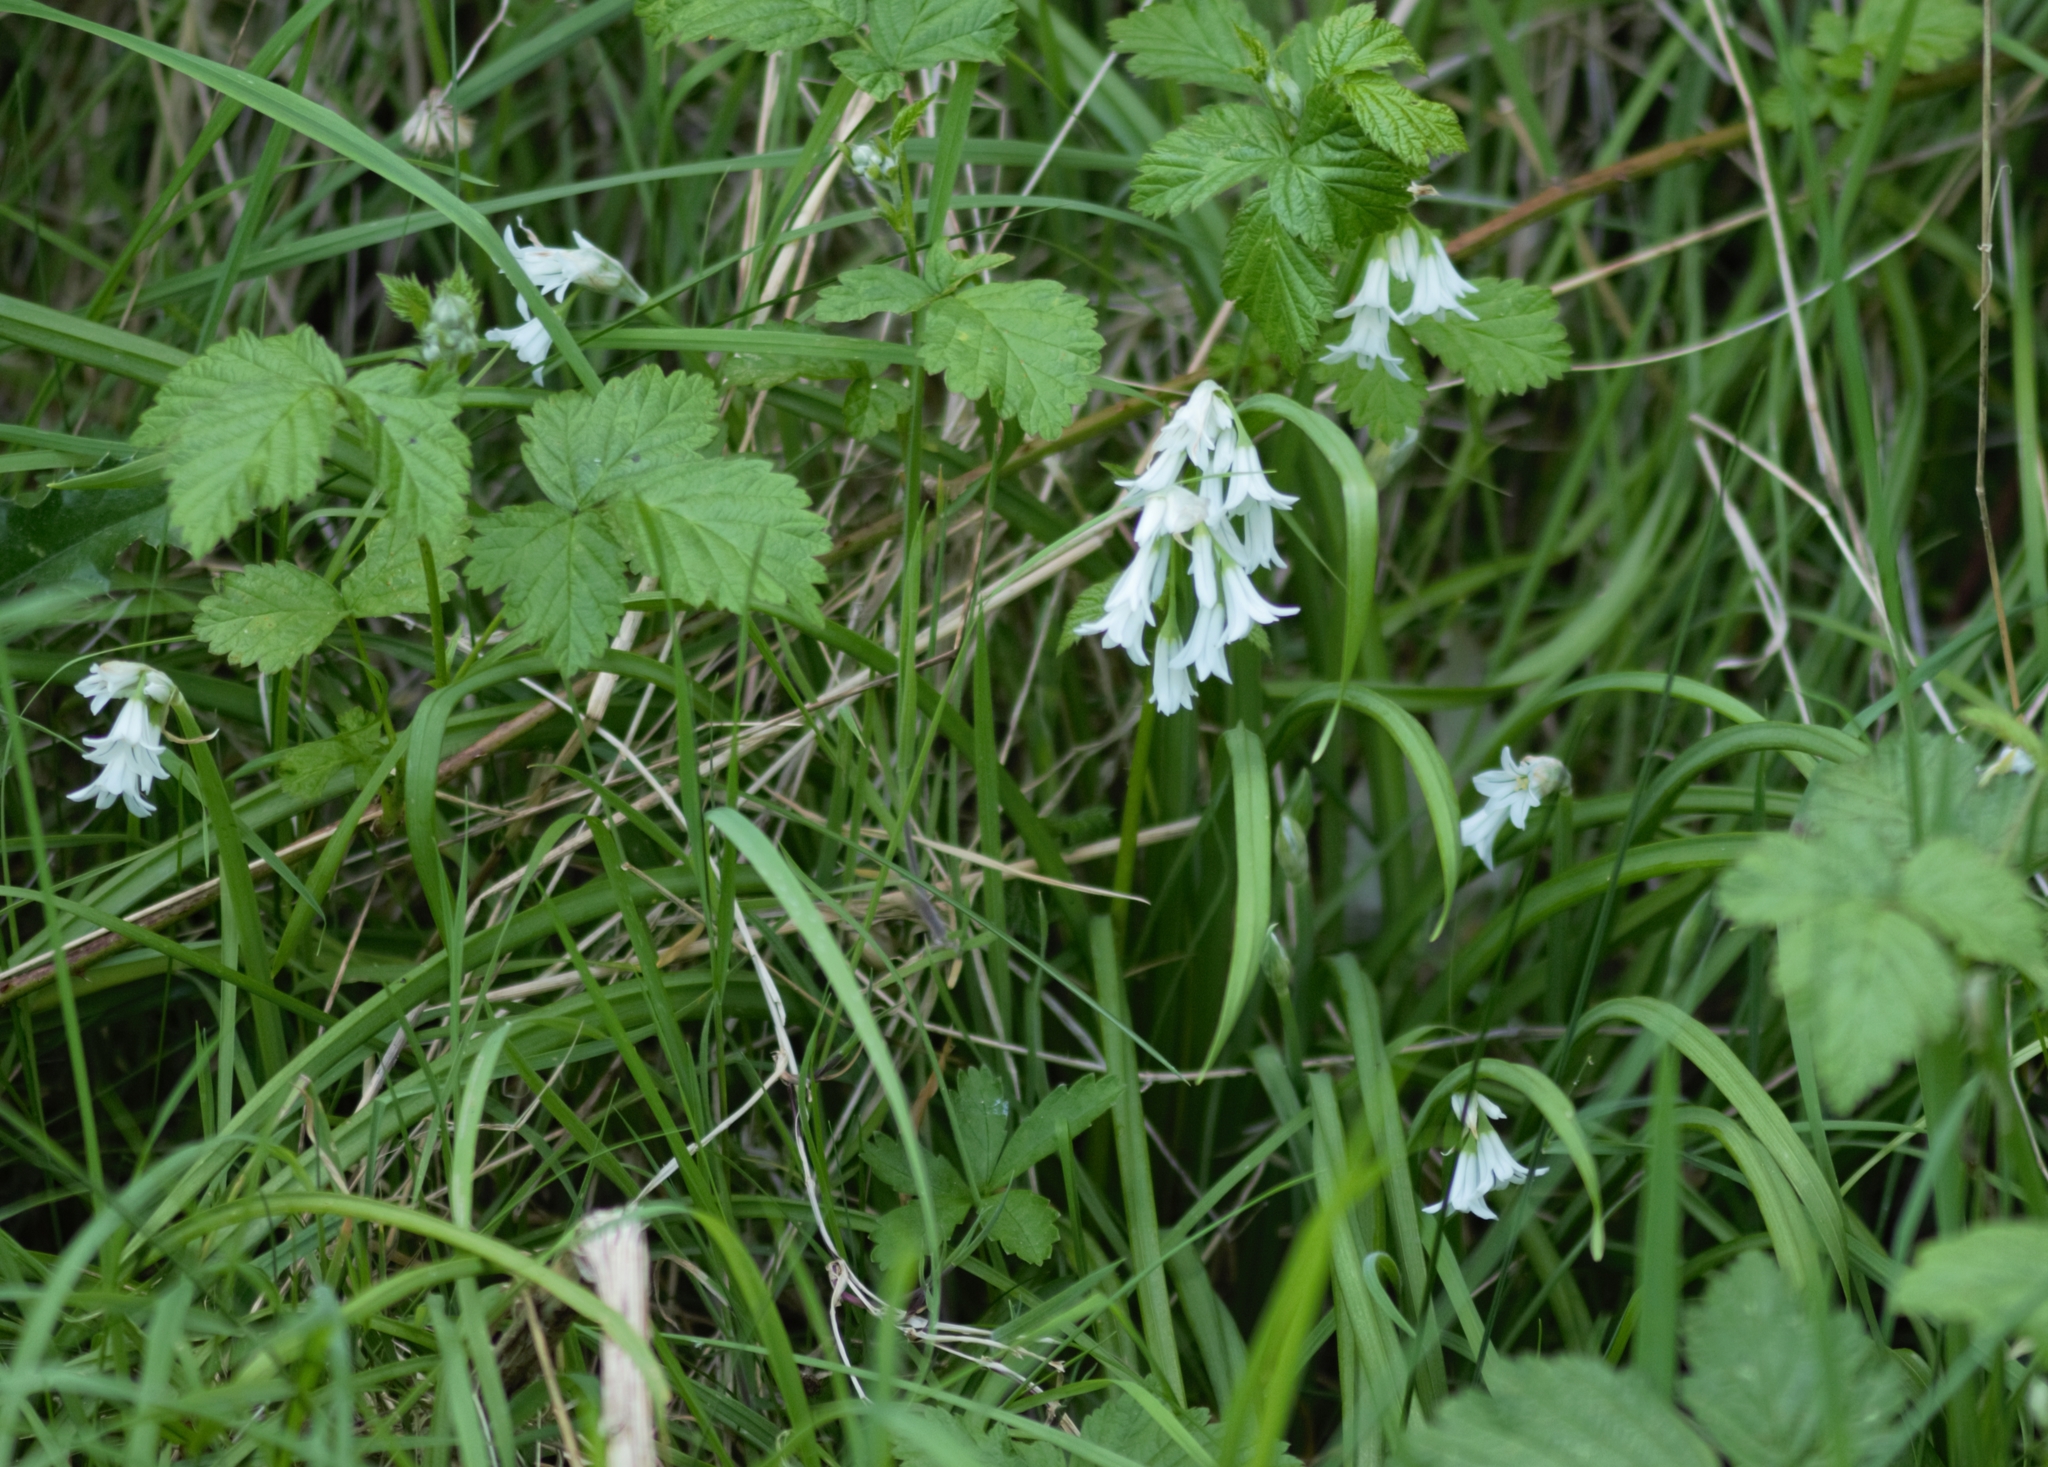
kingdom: Plantae
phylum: Tracheophyta
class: Liliopsida
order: Asparagales
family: Amaryllidaceae
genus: Allium
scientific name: Allium triquetrum
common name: Three-cornered garlic
